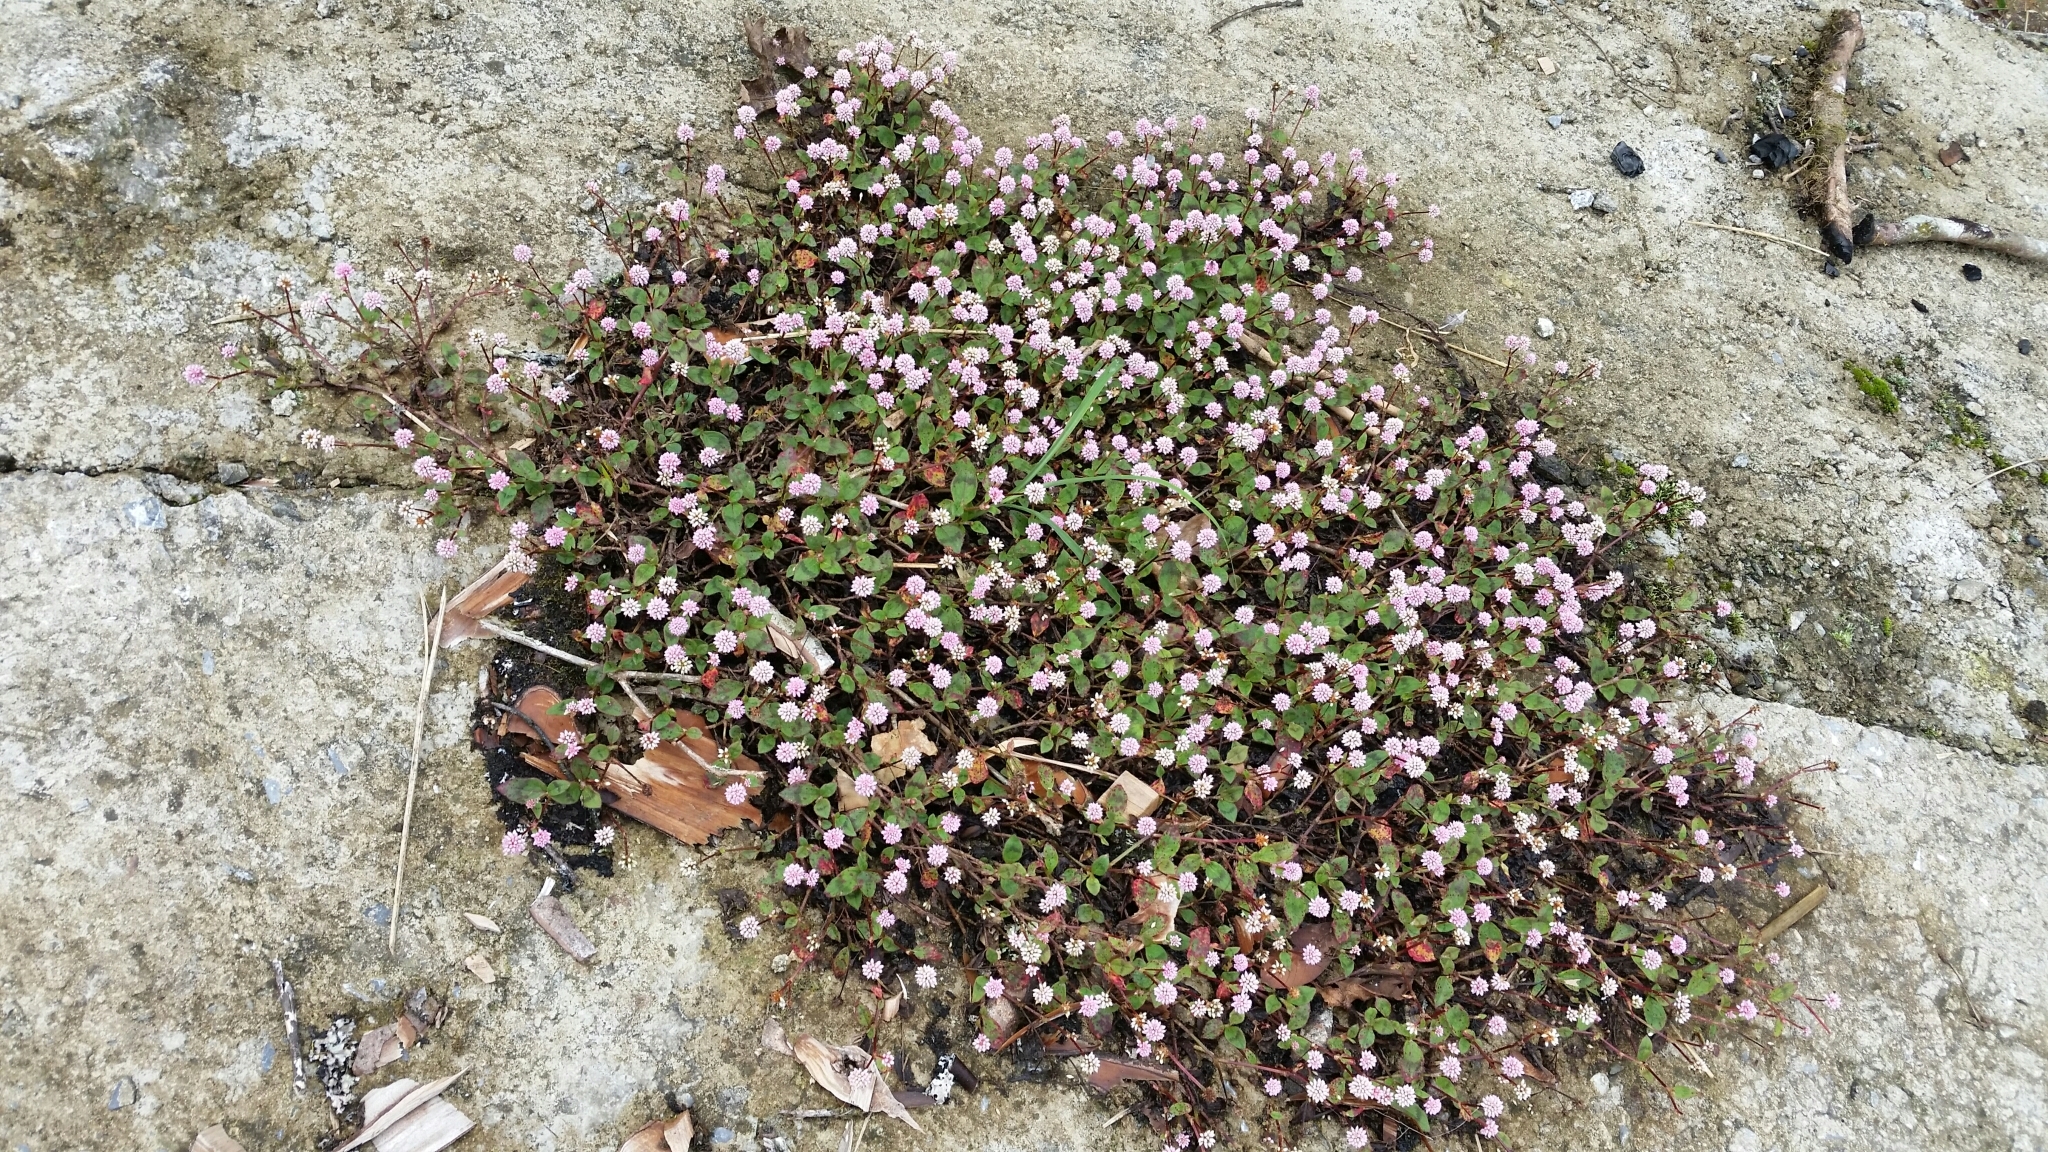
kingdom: Plantae
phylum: Tracheophyta
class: Magnoliopsida
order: Caryophyllales
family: Polygonaceae
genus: Persicaria
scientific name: Persicaria capitata
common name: Pinkhead smartweed
